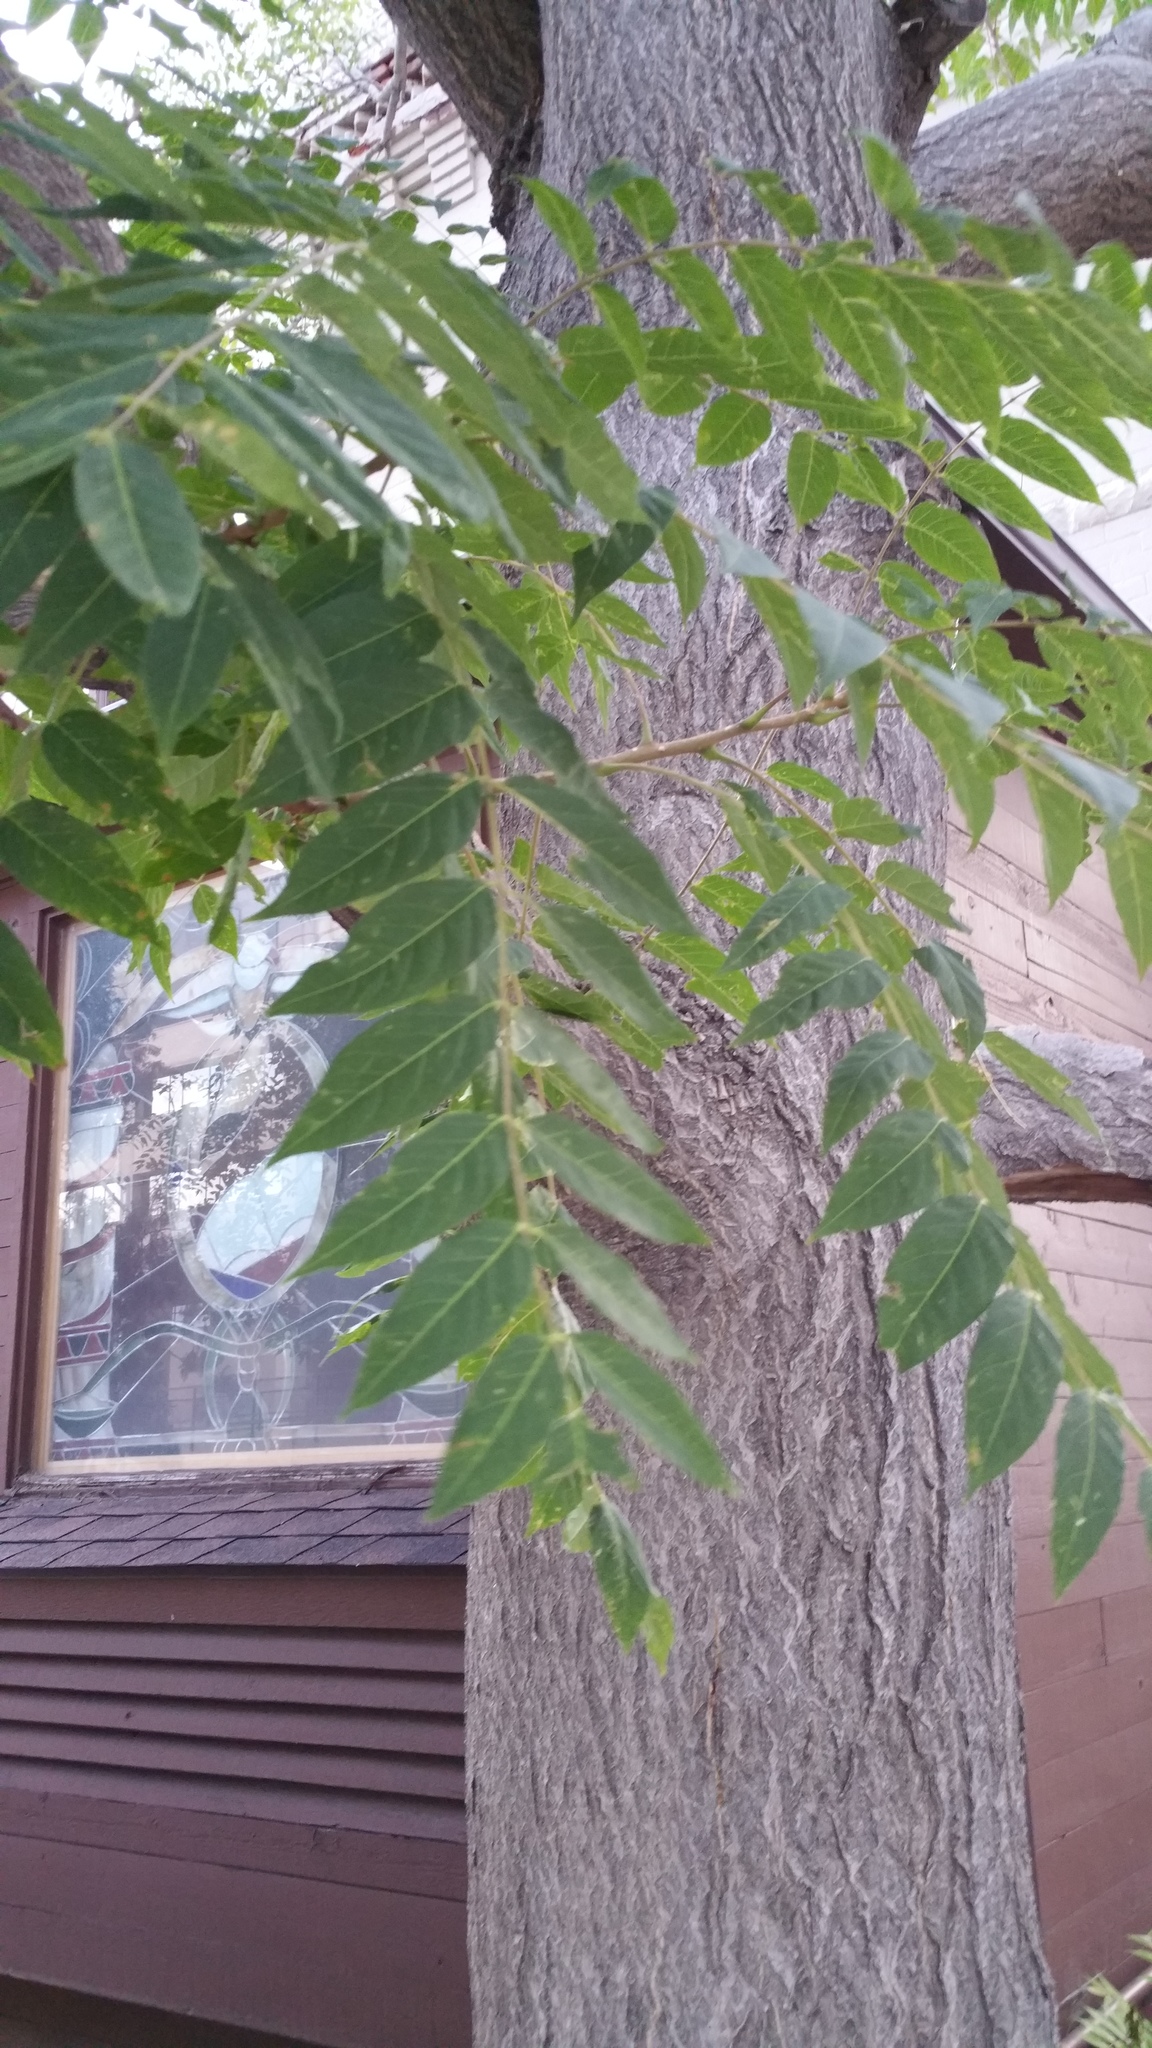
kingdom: Plantae
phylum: Tracheophyta
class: Magnoliopsida
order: Sapindales
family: Simaroubaceae
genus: Ailanthus
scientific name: Ailanthus altissima
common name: Tree-of-heaven
